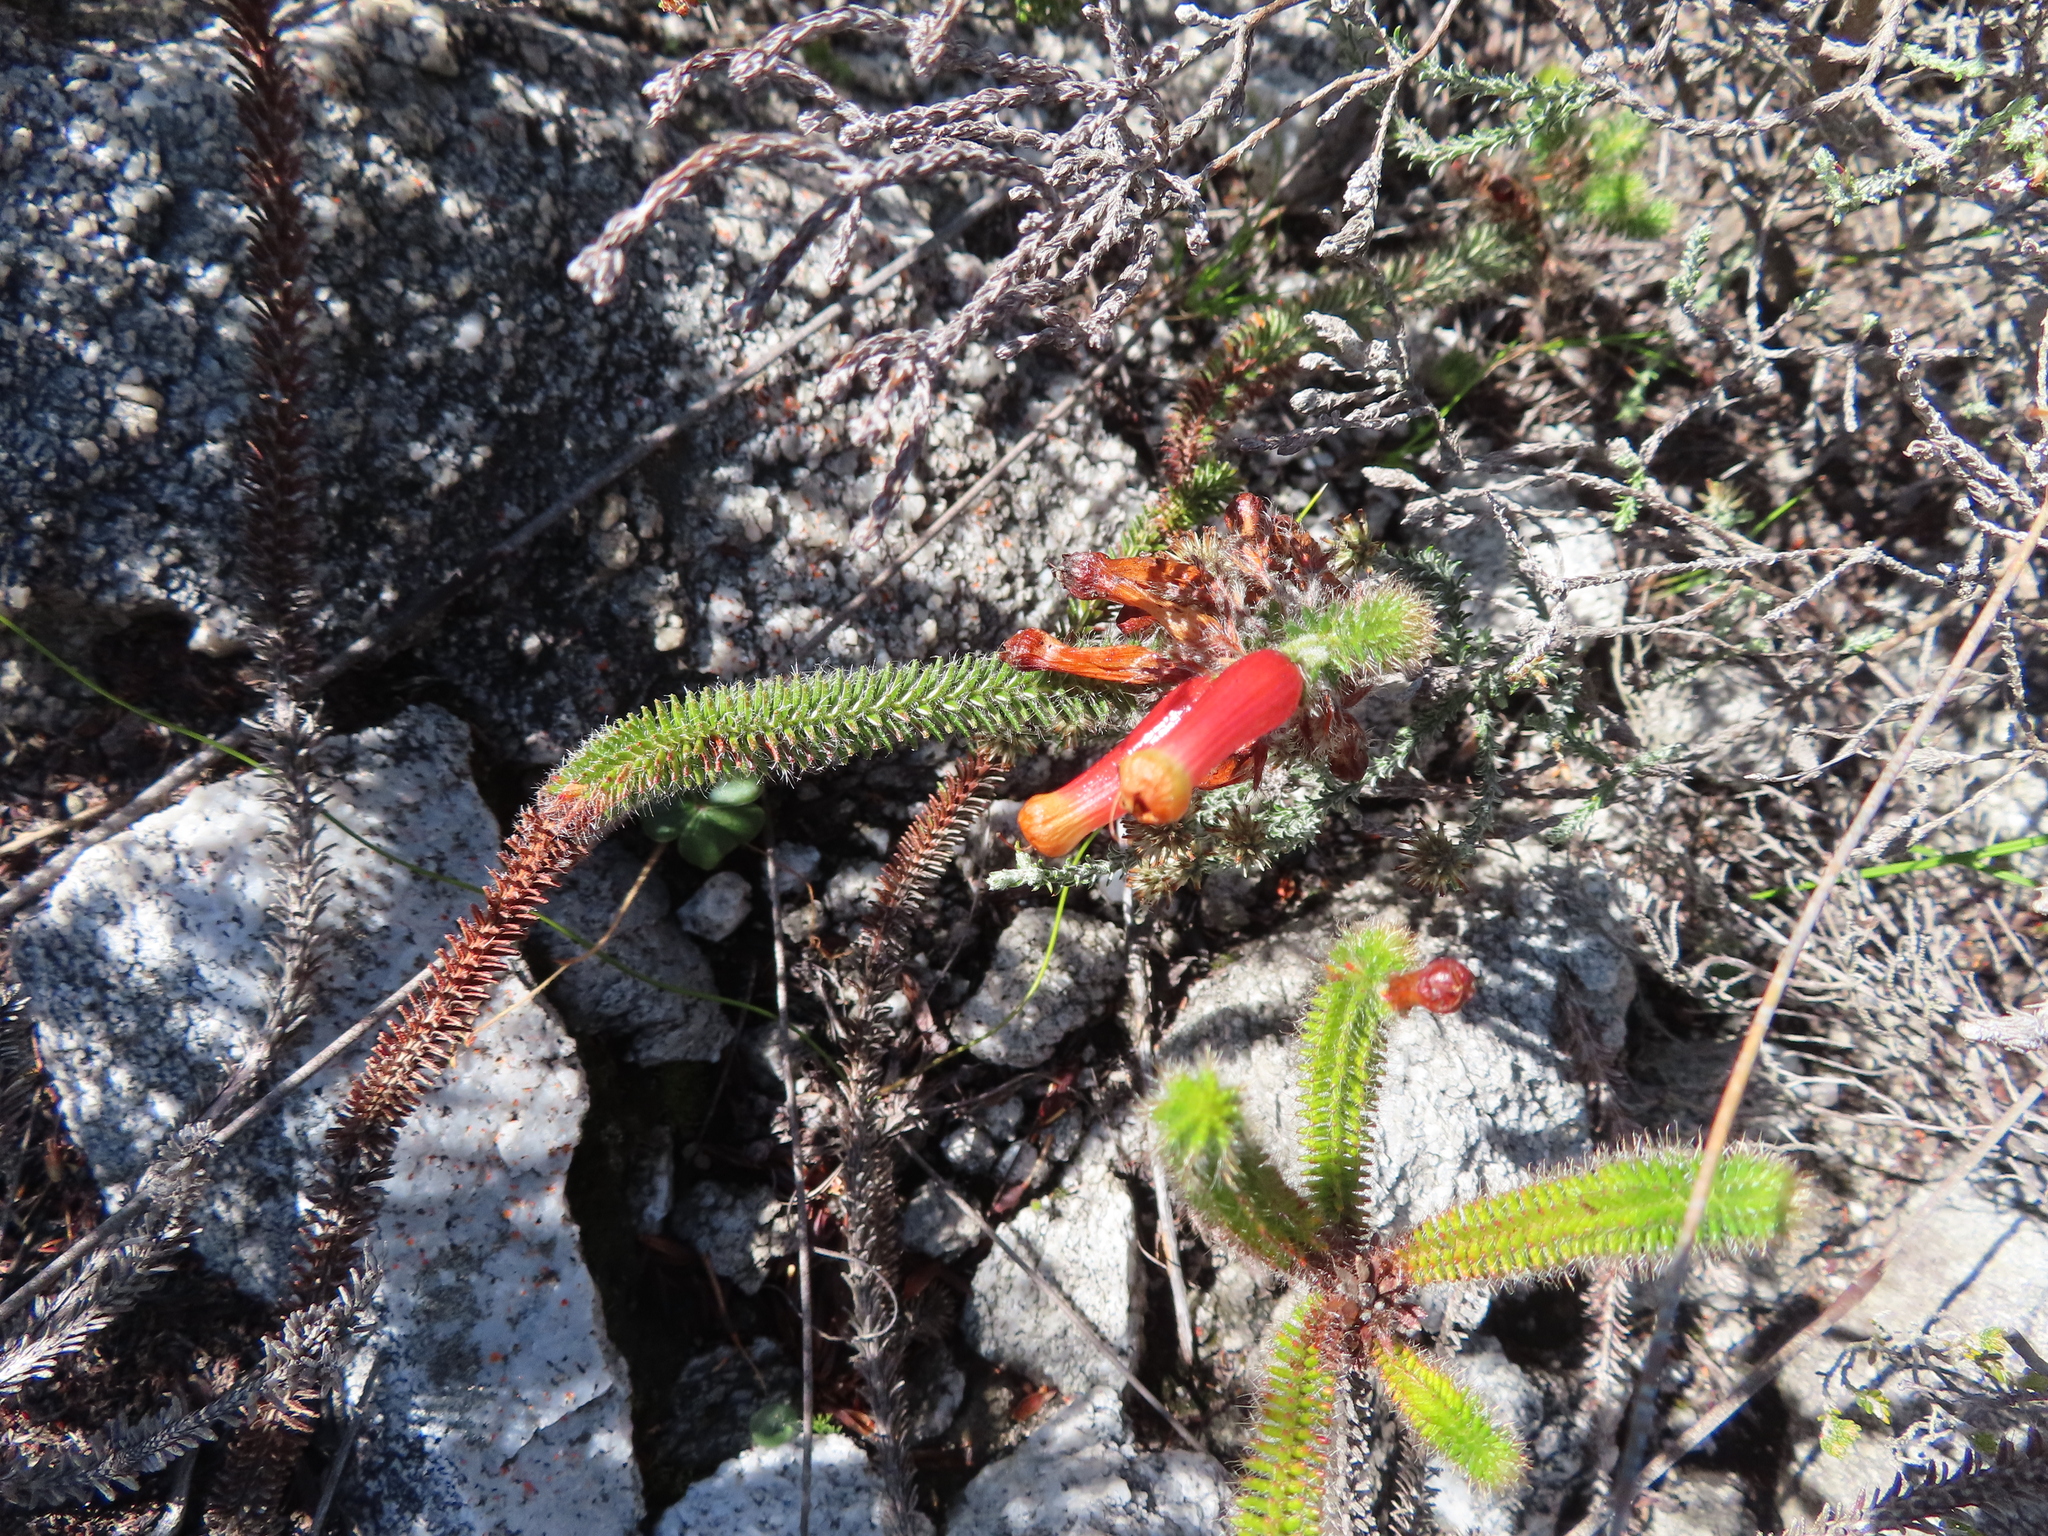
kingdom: Plantae
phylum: Tracheophyta
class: Magnoliopsida
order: Ericales
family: Ericaceae
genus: Erica
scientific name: Erica massonii
